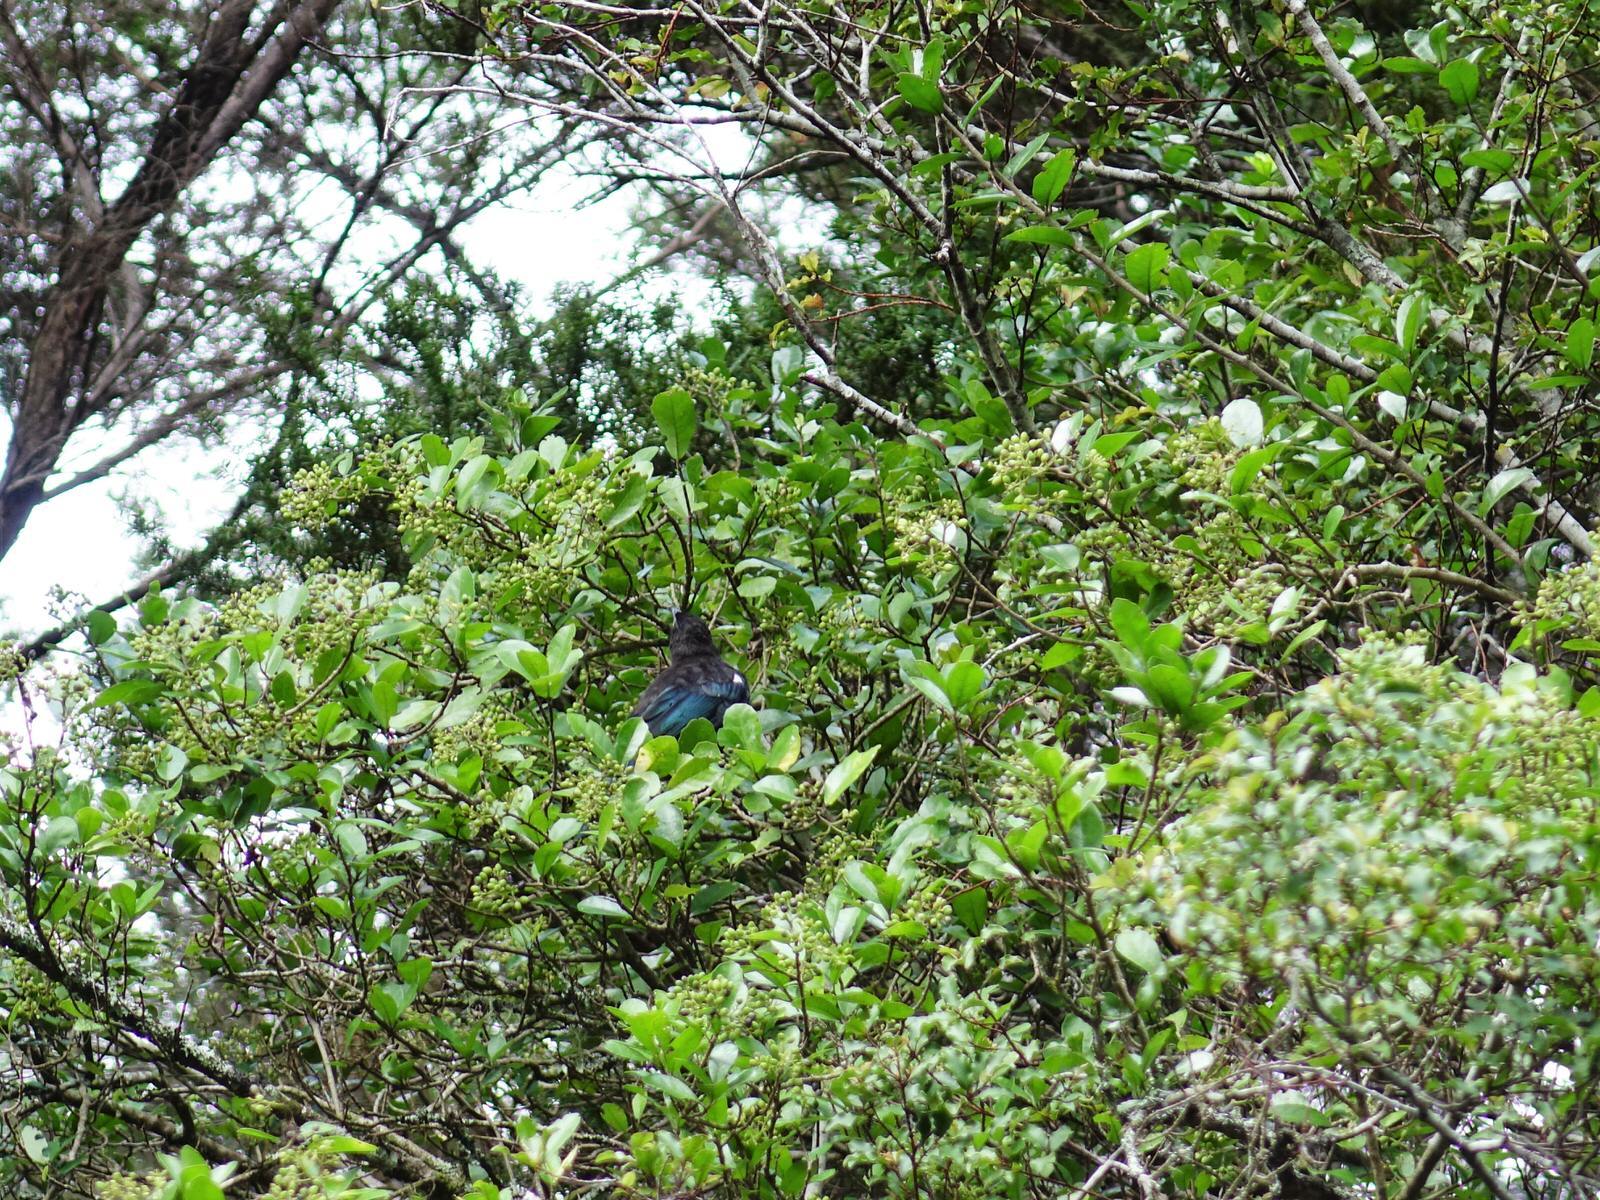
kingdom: Animalia
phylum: Chordata
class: Aves
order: Passeriformes
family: Meliphagidae
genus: Prosthemadera
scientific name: Prosthemadera novaeseelandiae
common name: Tui
